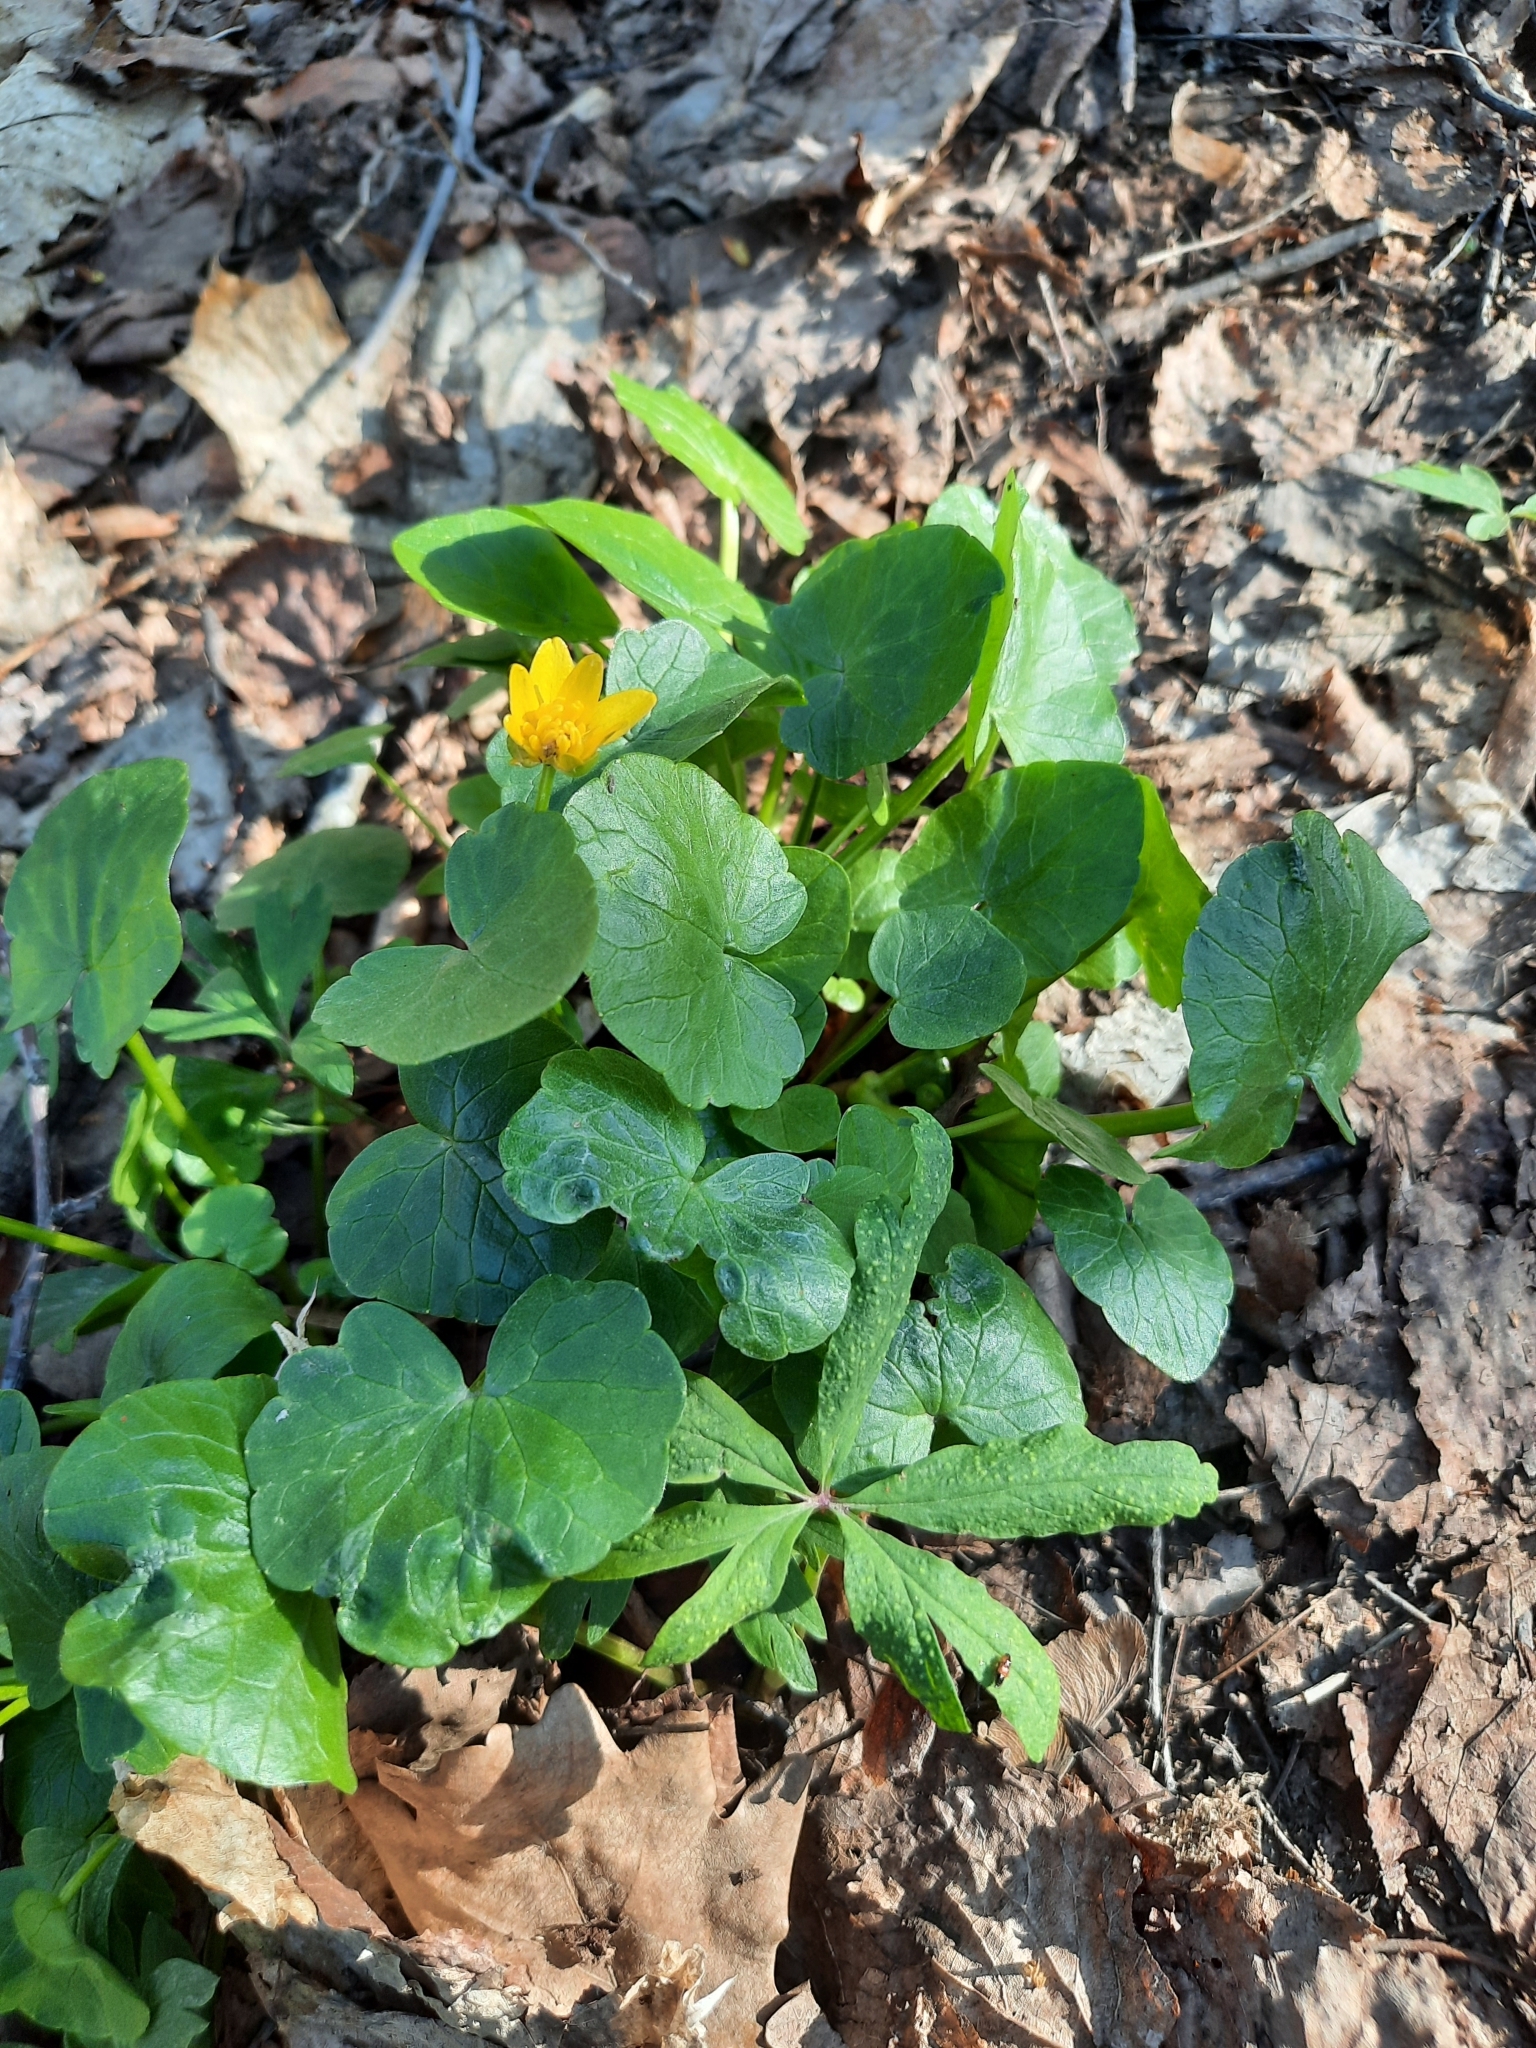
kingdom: Plantae
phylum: Tracheophyta
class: Magnoliopsida
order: Ranunculales
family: Ranunculaceae
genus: Ficaria
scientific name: Ficaria verna
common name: Lesser celandine
